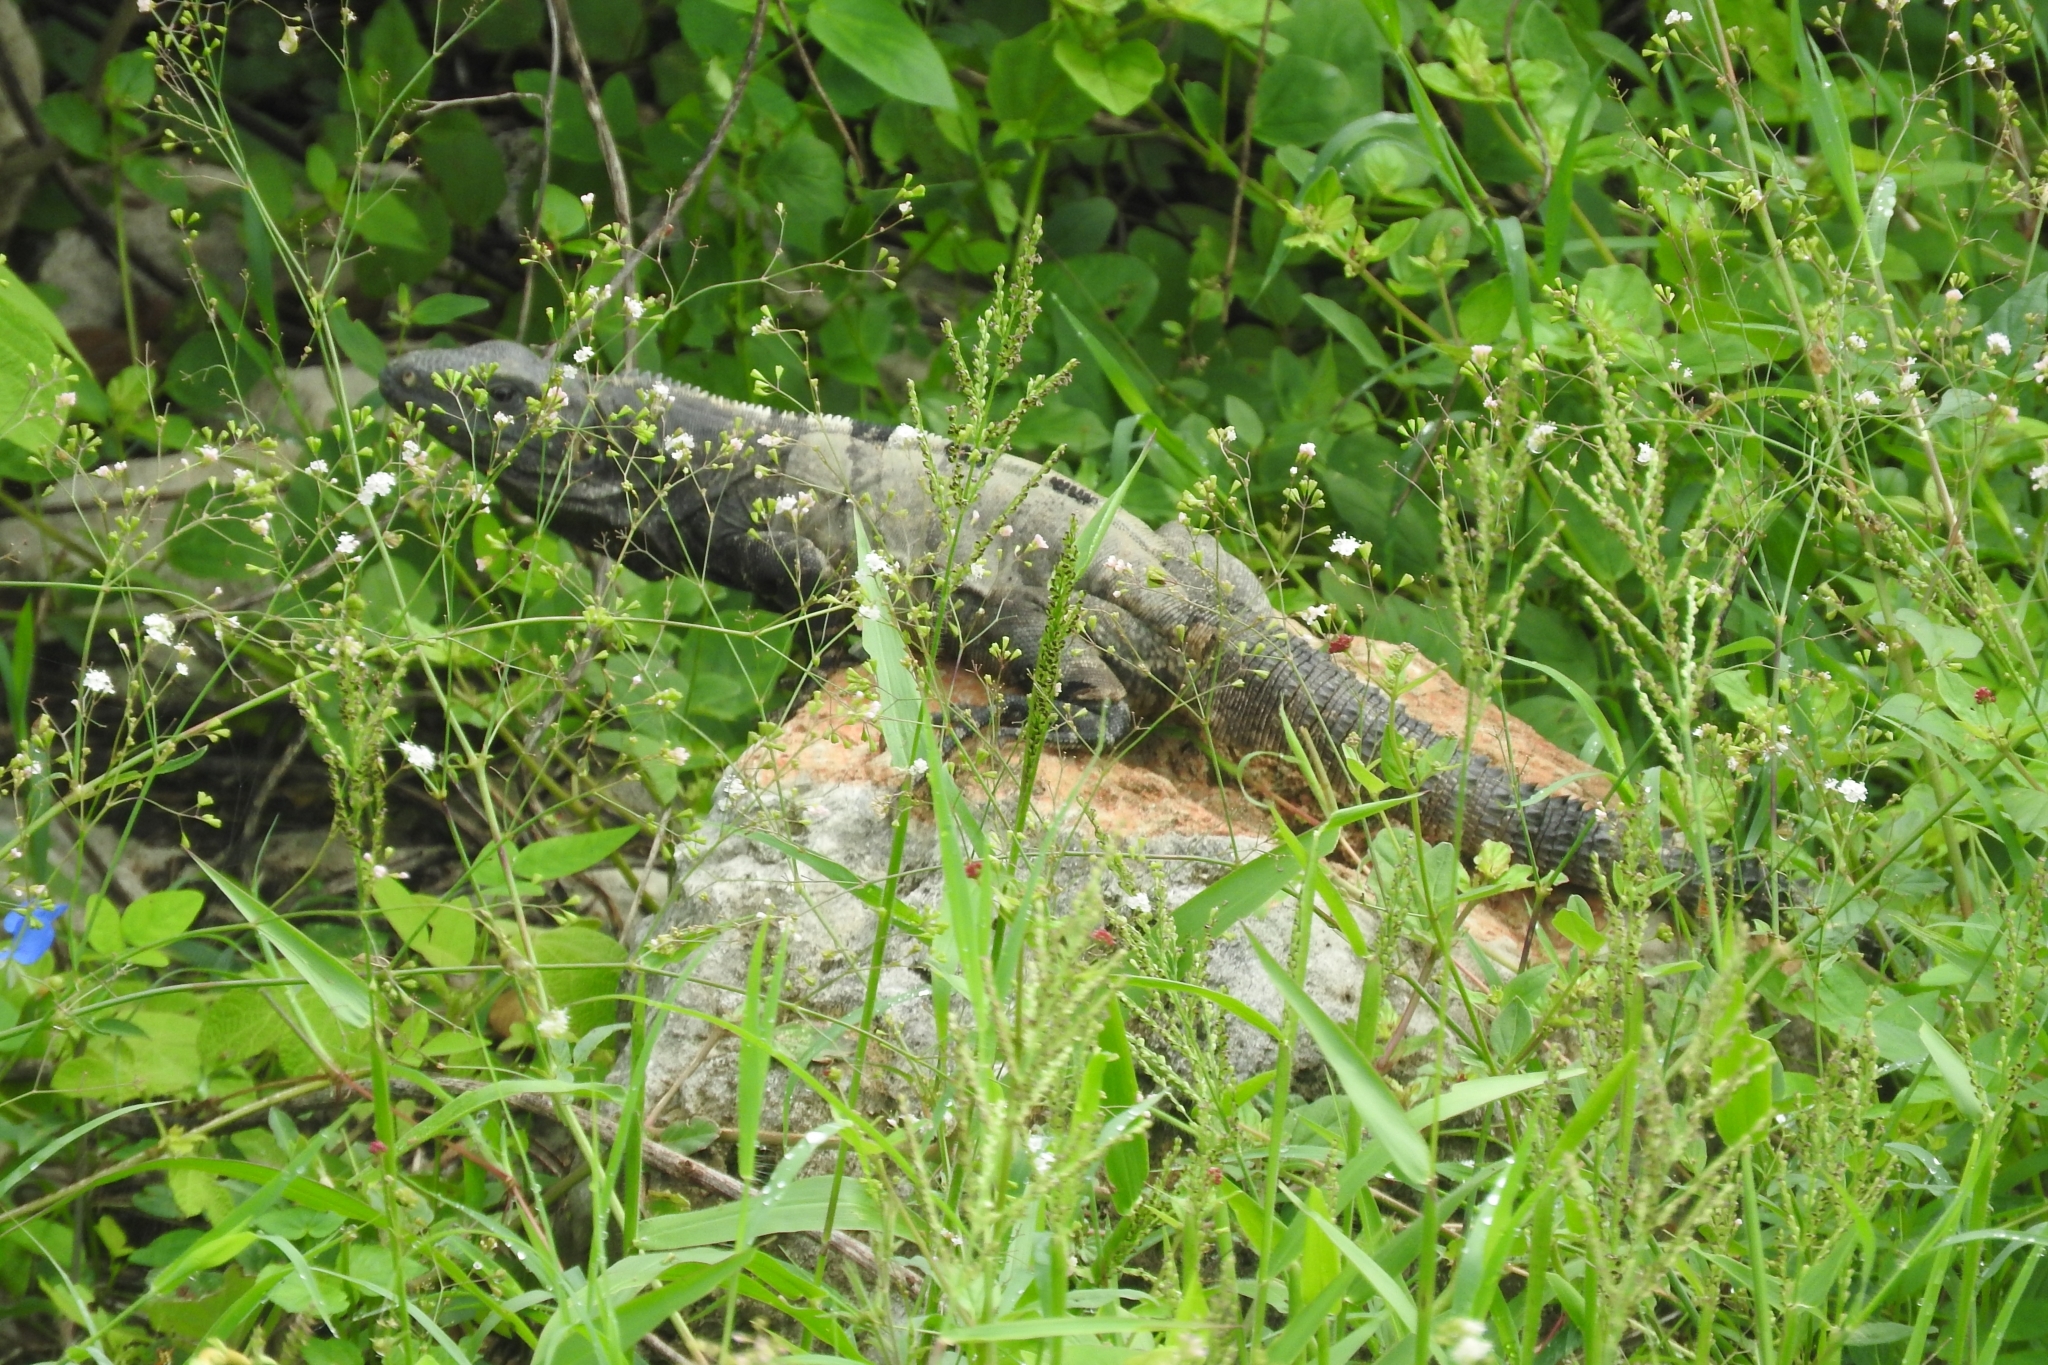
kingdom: Animalia
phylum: Chordata
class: Squamata
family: Iguanidae
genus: Ctenosaura
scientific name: Ctenosaura similis
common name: Black spiny-tailed iguana
